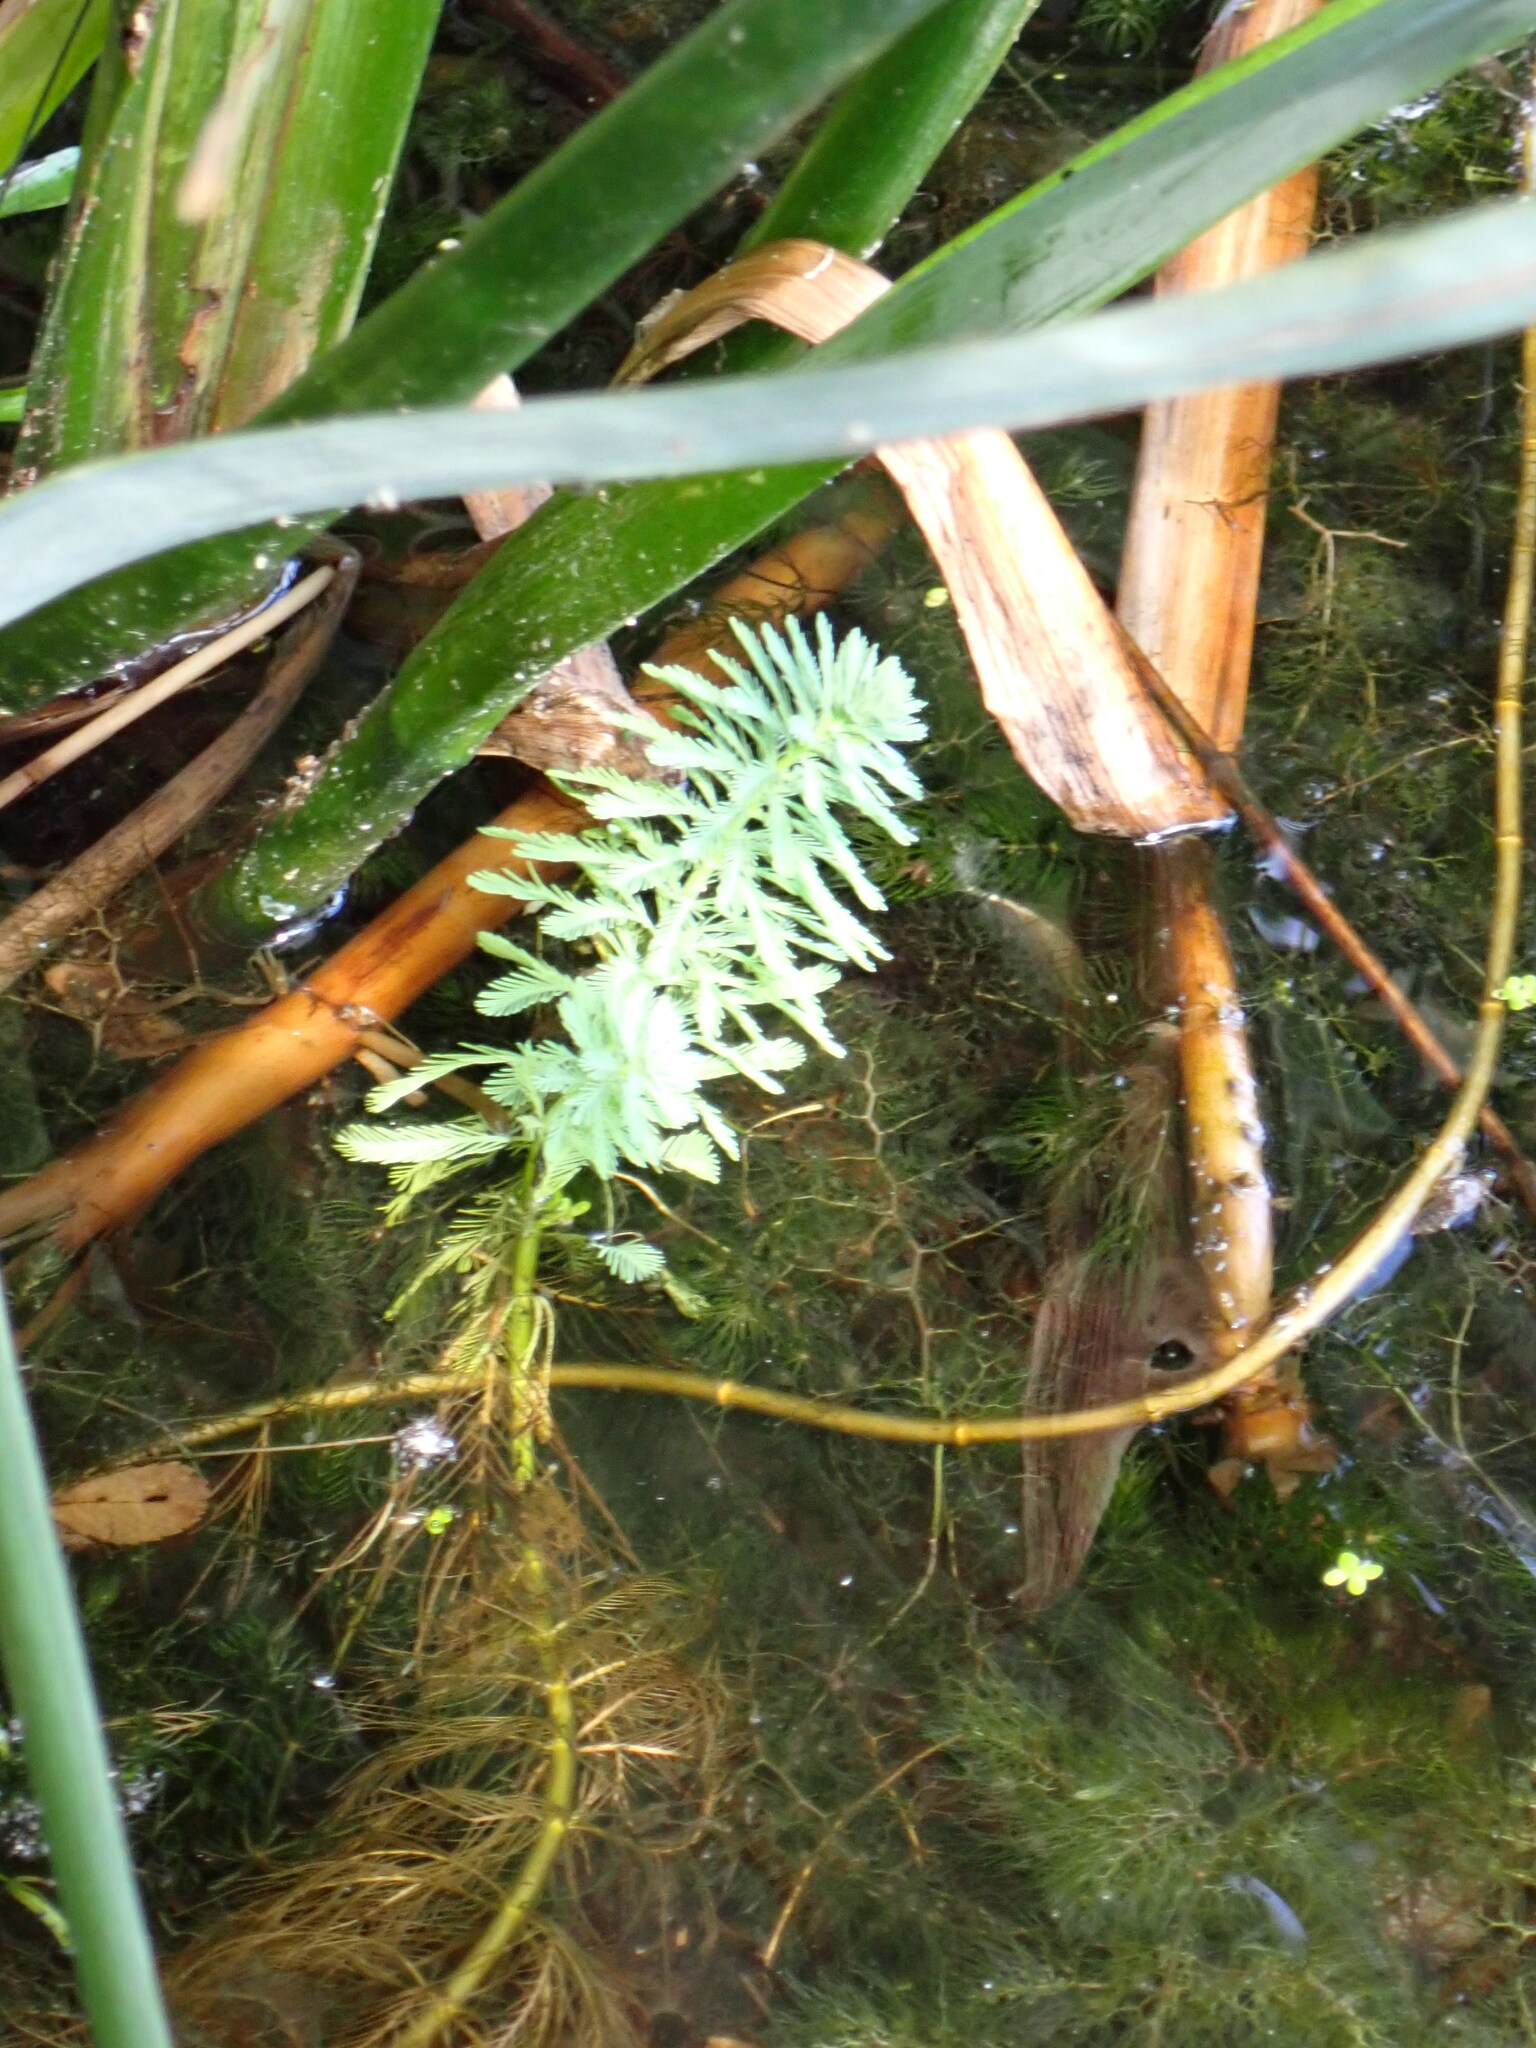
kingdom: Plantae
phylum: Tracheophyta
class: Magnoliopsida
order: Saxifragales
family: Haloragaceae
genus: Myriophyllum
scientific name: Myriophyllum aquaticum
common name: Parrot's feather
